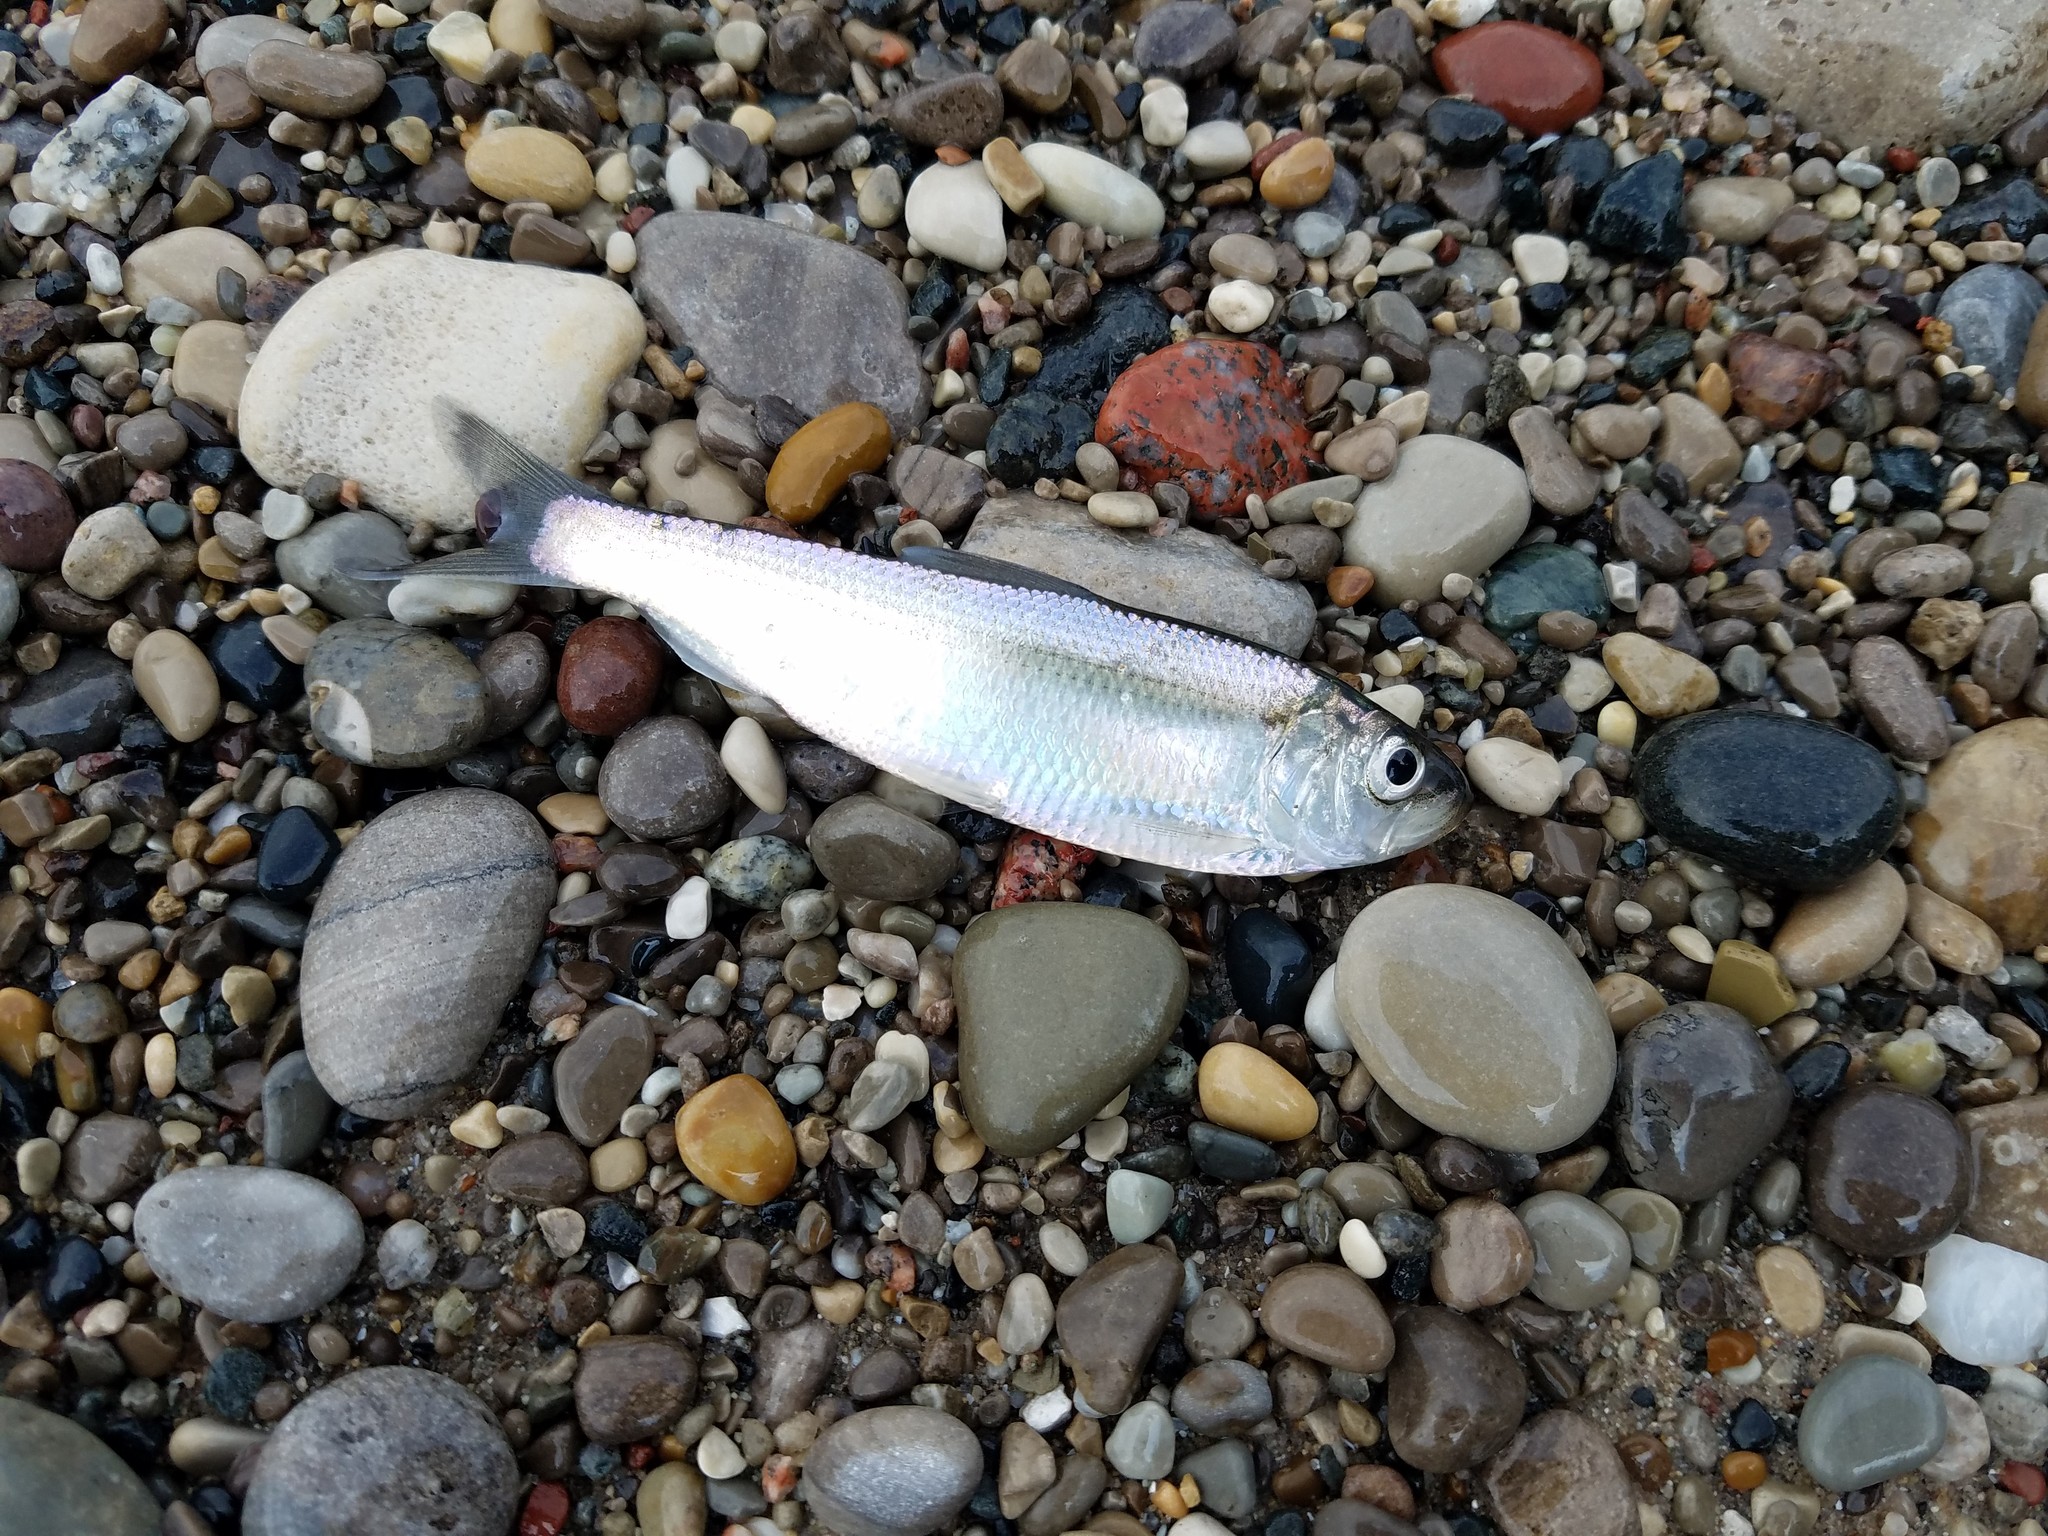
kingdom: Animalia
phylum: Chordata
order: Clupeiformes
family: Clupeidae
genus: Alosa
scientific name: Alosa pseudoharengus
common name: Alewife
